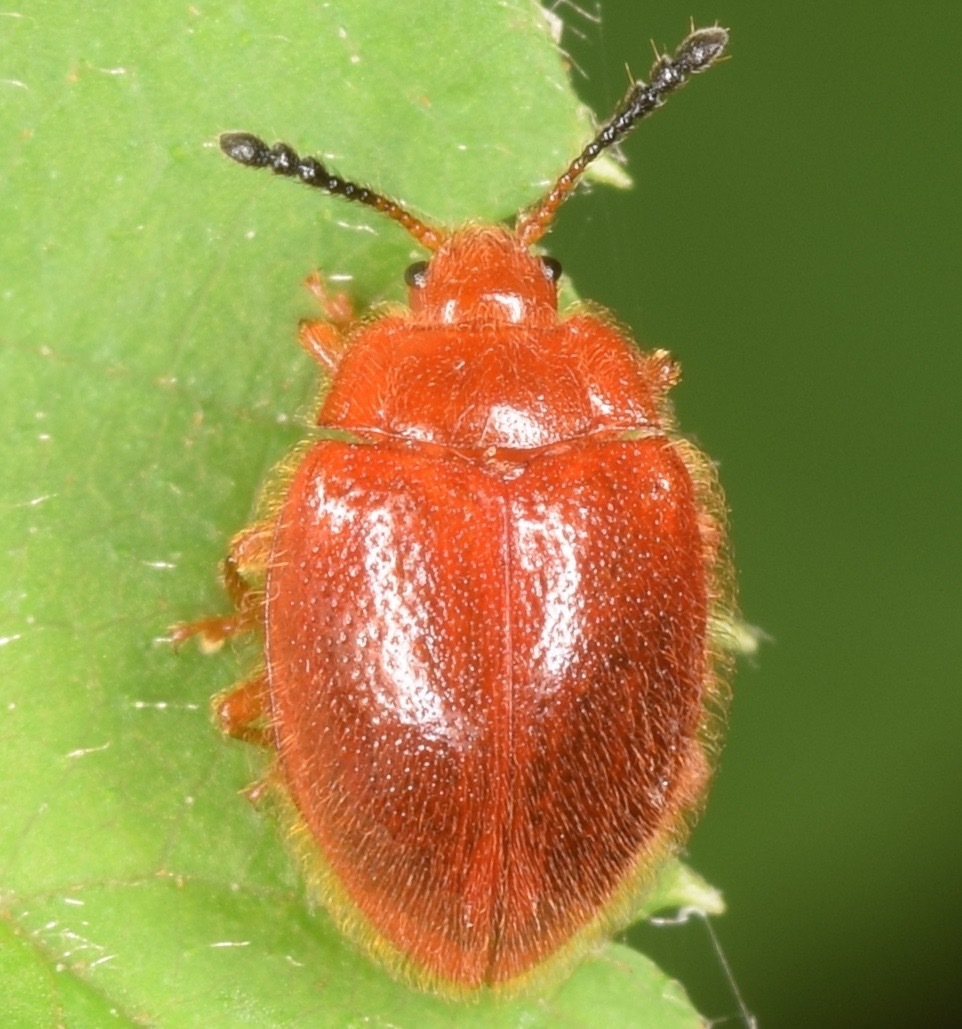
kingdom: Animalia
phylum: Arthropoda
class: Insecta
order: Coleoptera
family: Endomychidae
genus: Stenotarsus
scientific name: Stenotarsus blatchleyi
